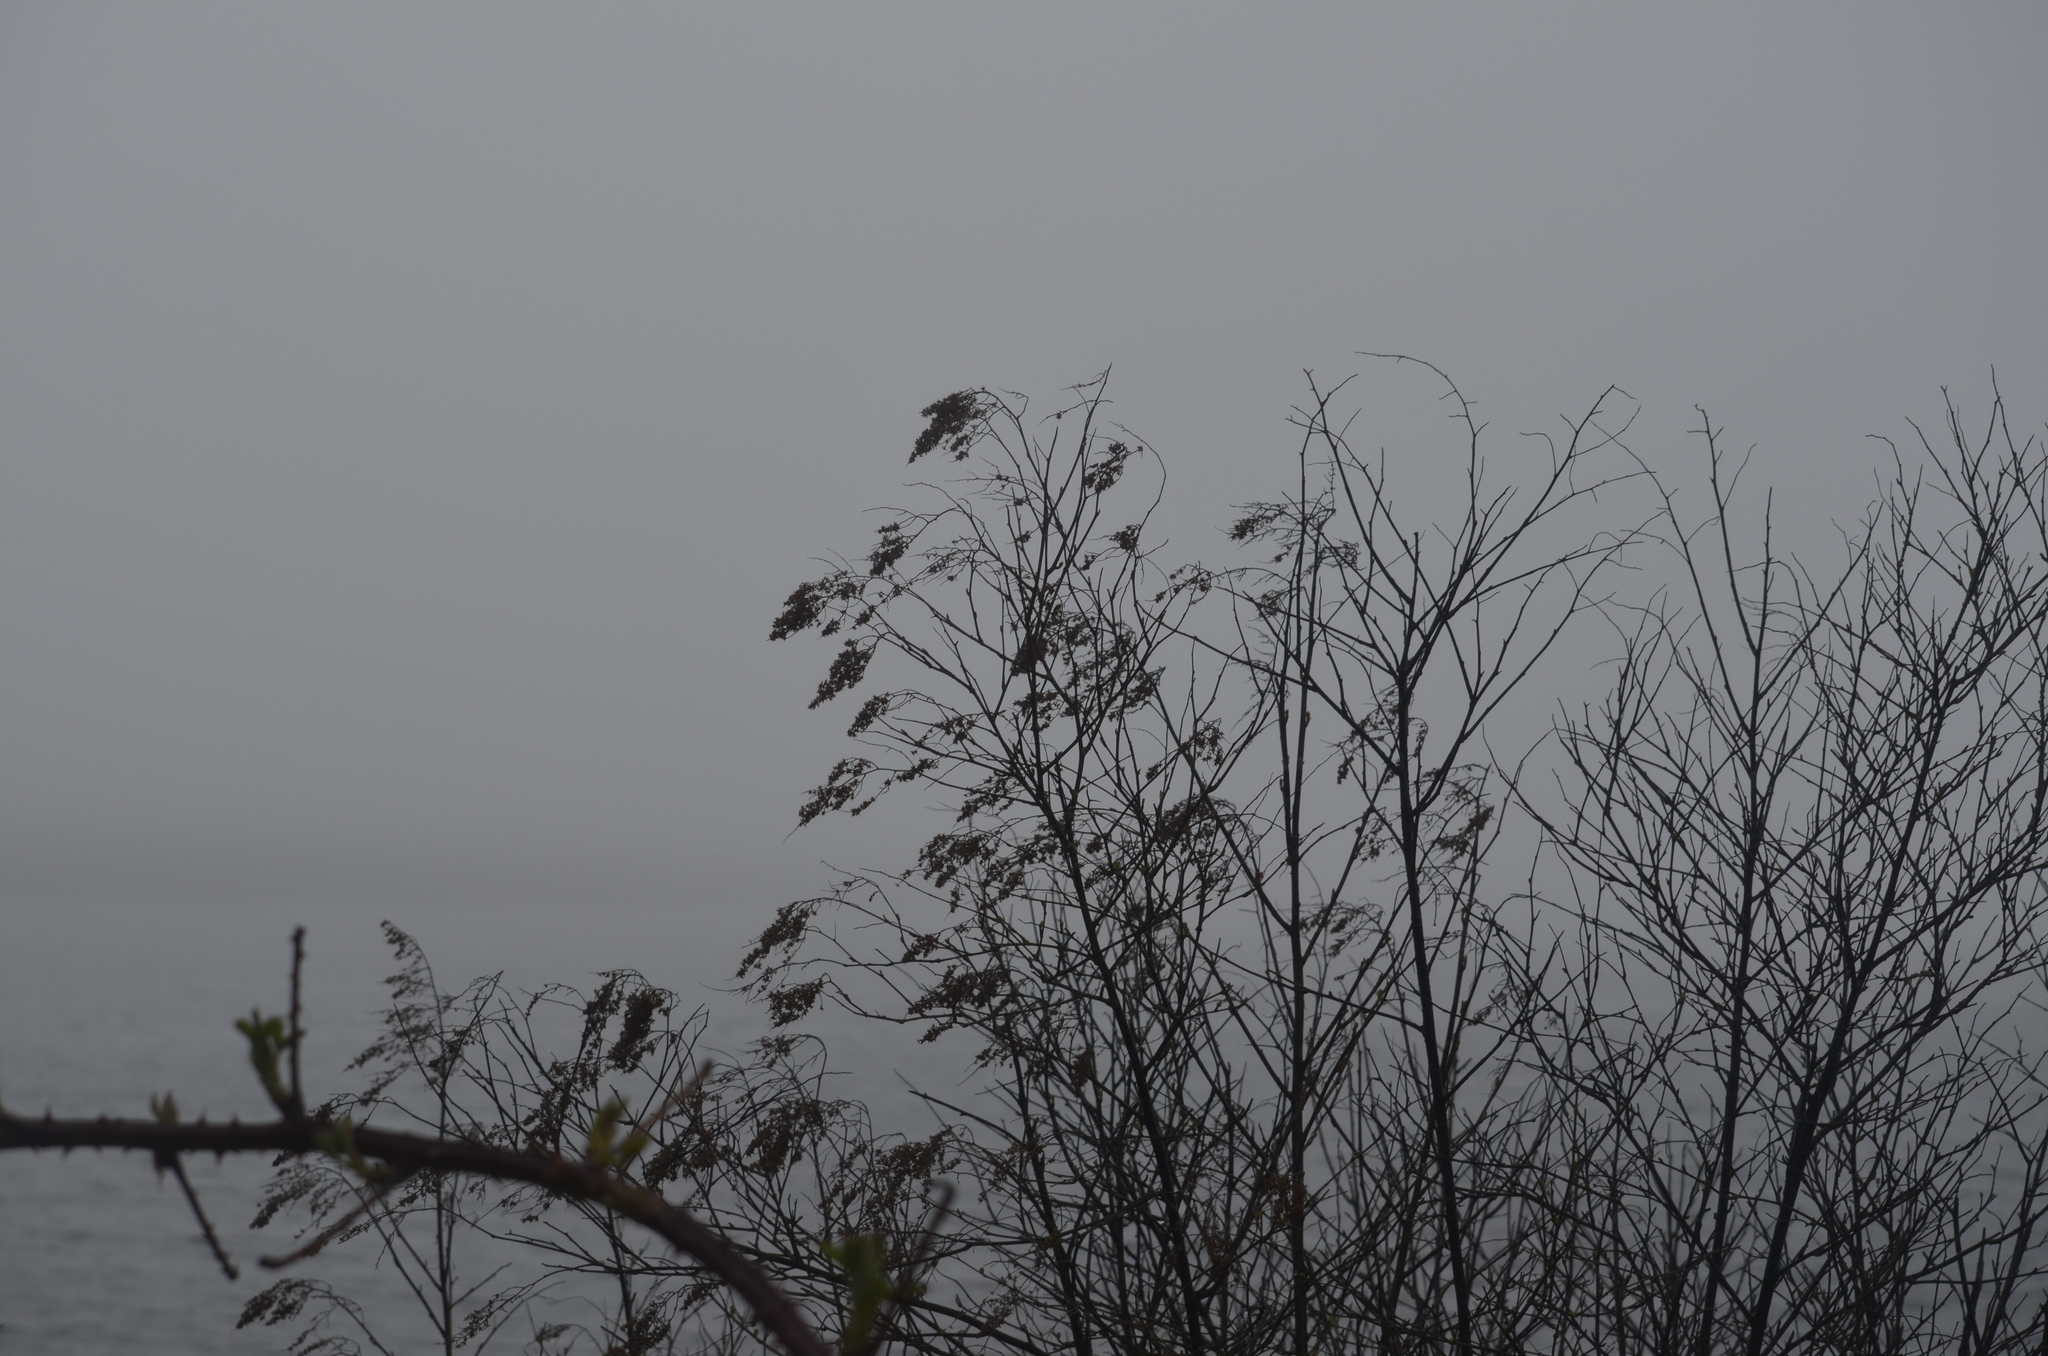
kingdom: Plantae
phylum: Tracheophyta
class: Magnoliopsida
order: Rosales
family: Rosaceae
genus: Holodiscus
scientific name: Holodiscus discolor
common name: Oceanspray
